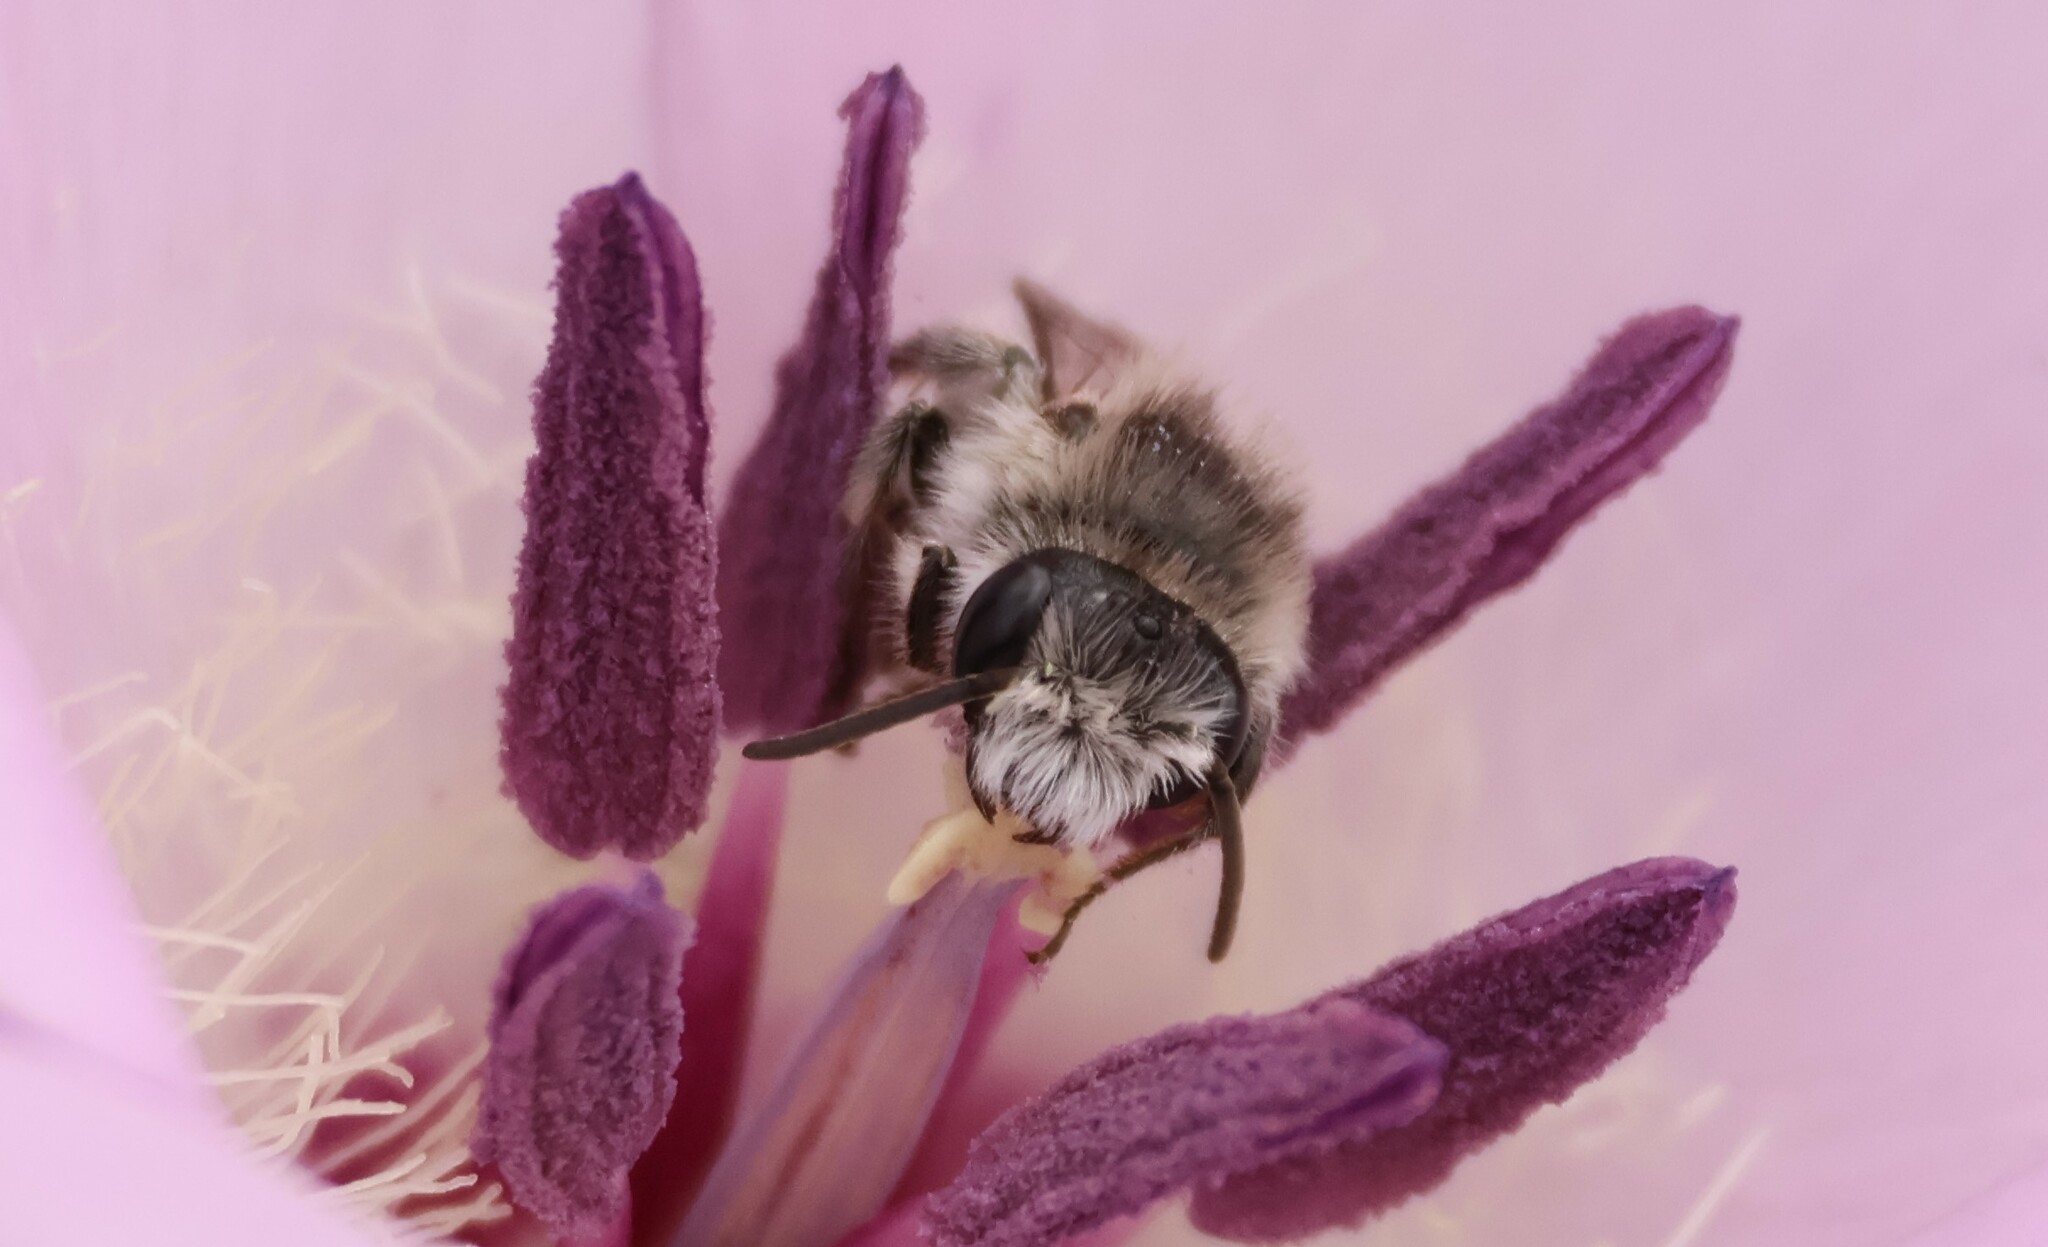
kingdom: Animalia
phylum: Arthropoda
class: Insecta
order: Hymenoptera
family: Andrenidae
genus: Ancylandrena
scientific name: Ancylandrena atoposoma
